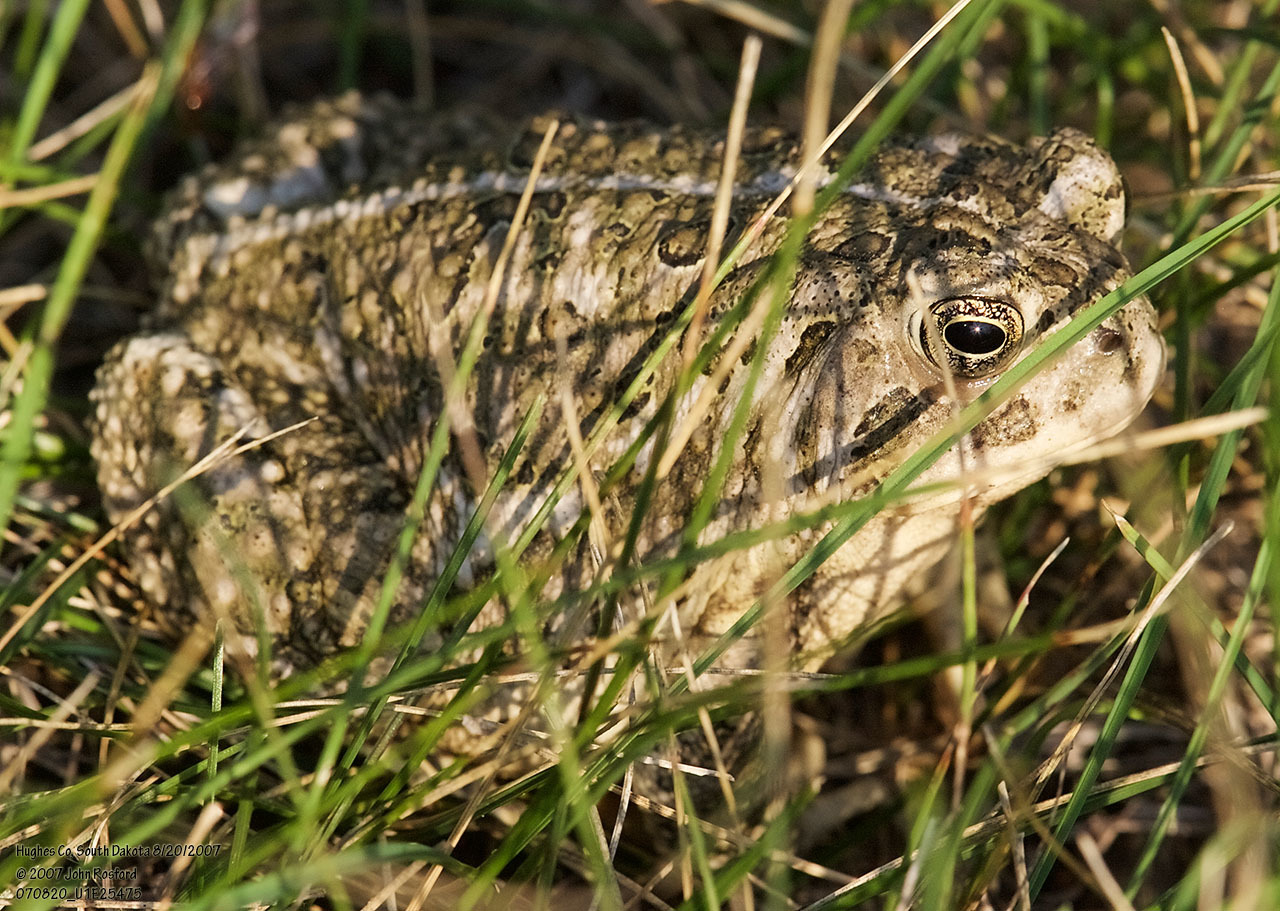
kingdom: Animalia
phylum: Chordata
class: Amphibia
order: Anura
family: Bufonidae
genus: Anaxyrus
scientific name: Anaxyrus woodhousii
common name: Woodhouse's toad
